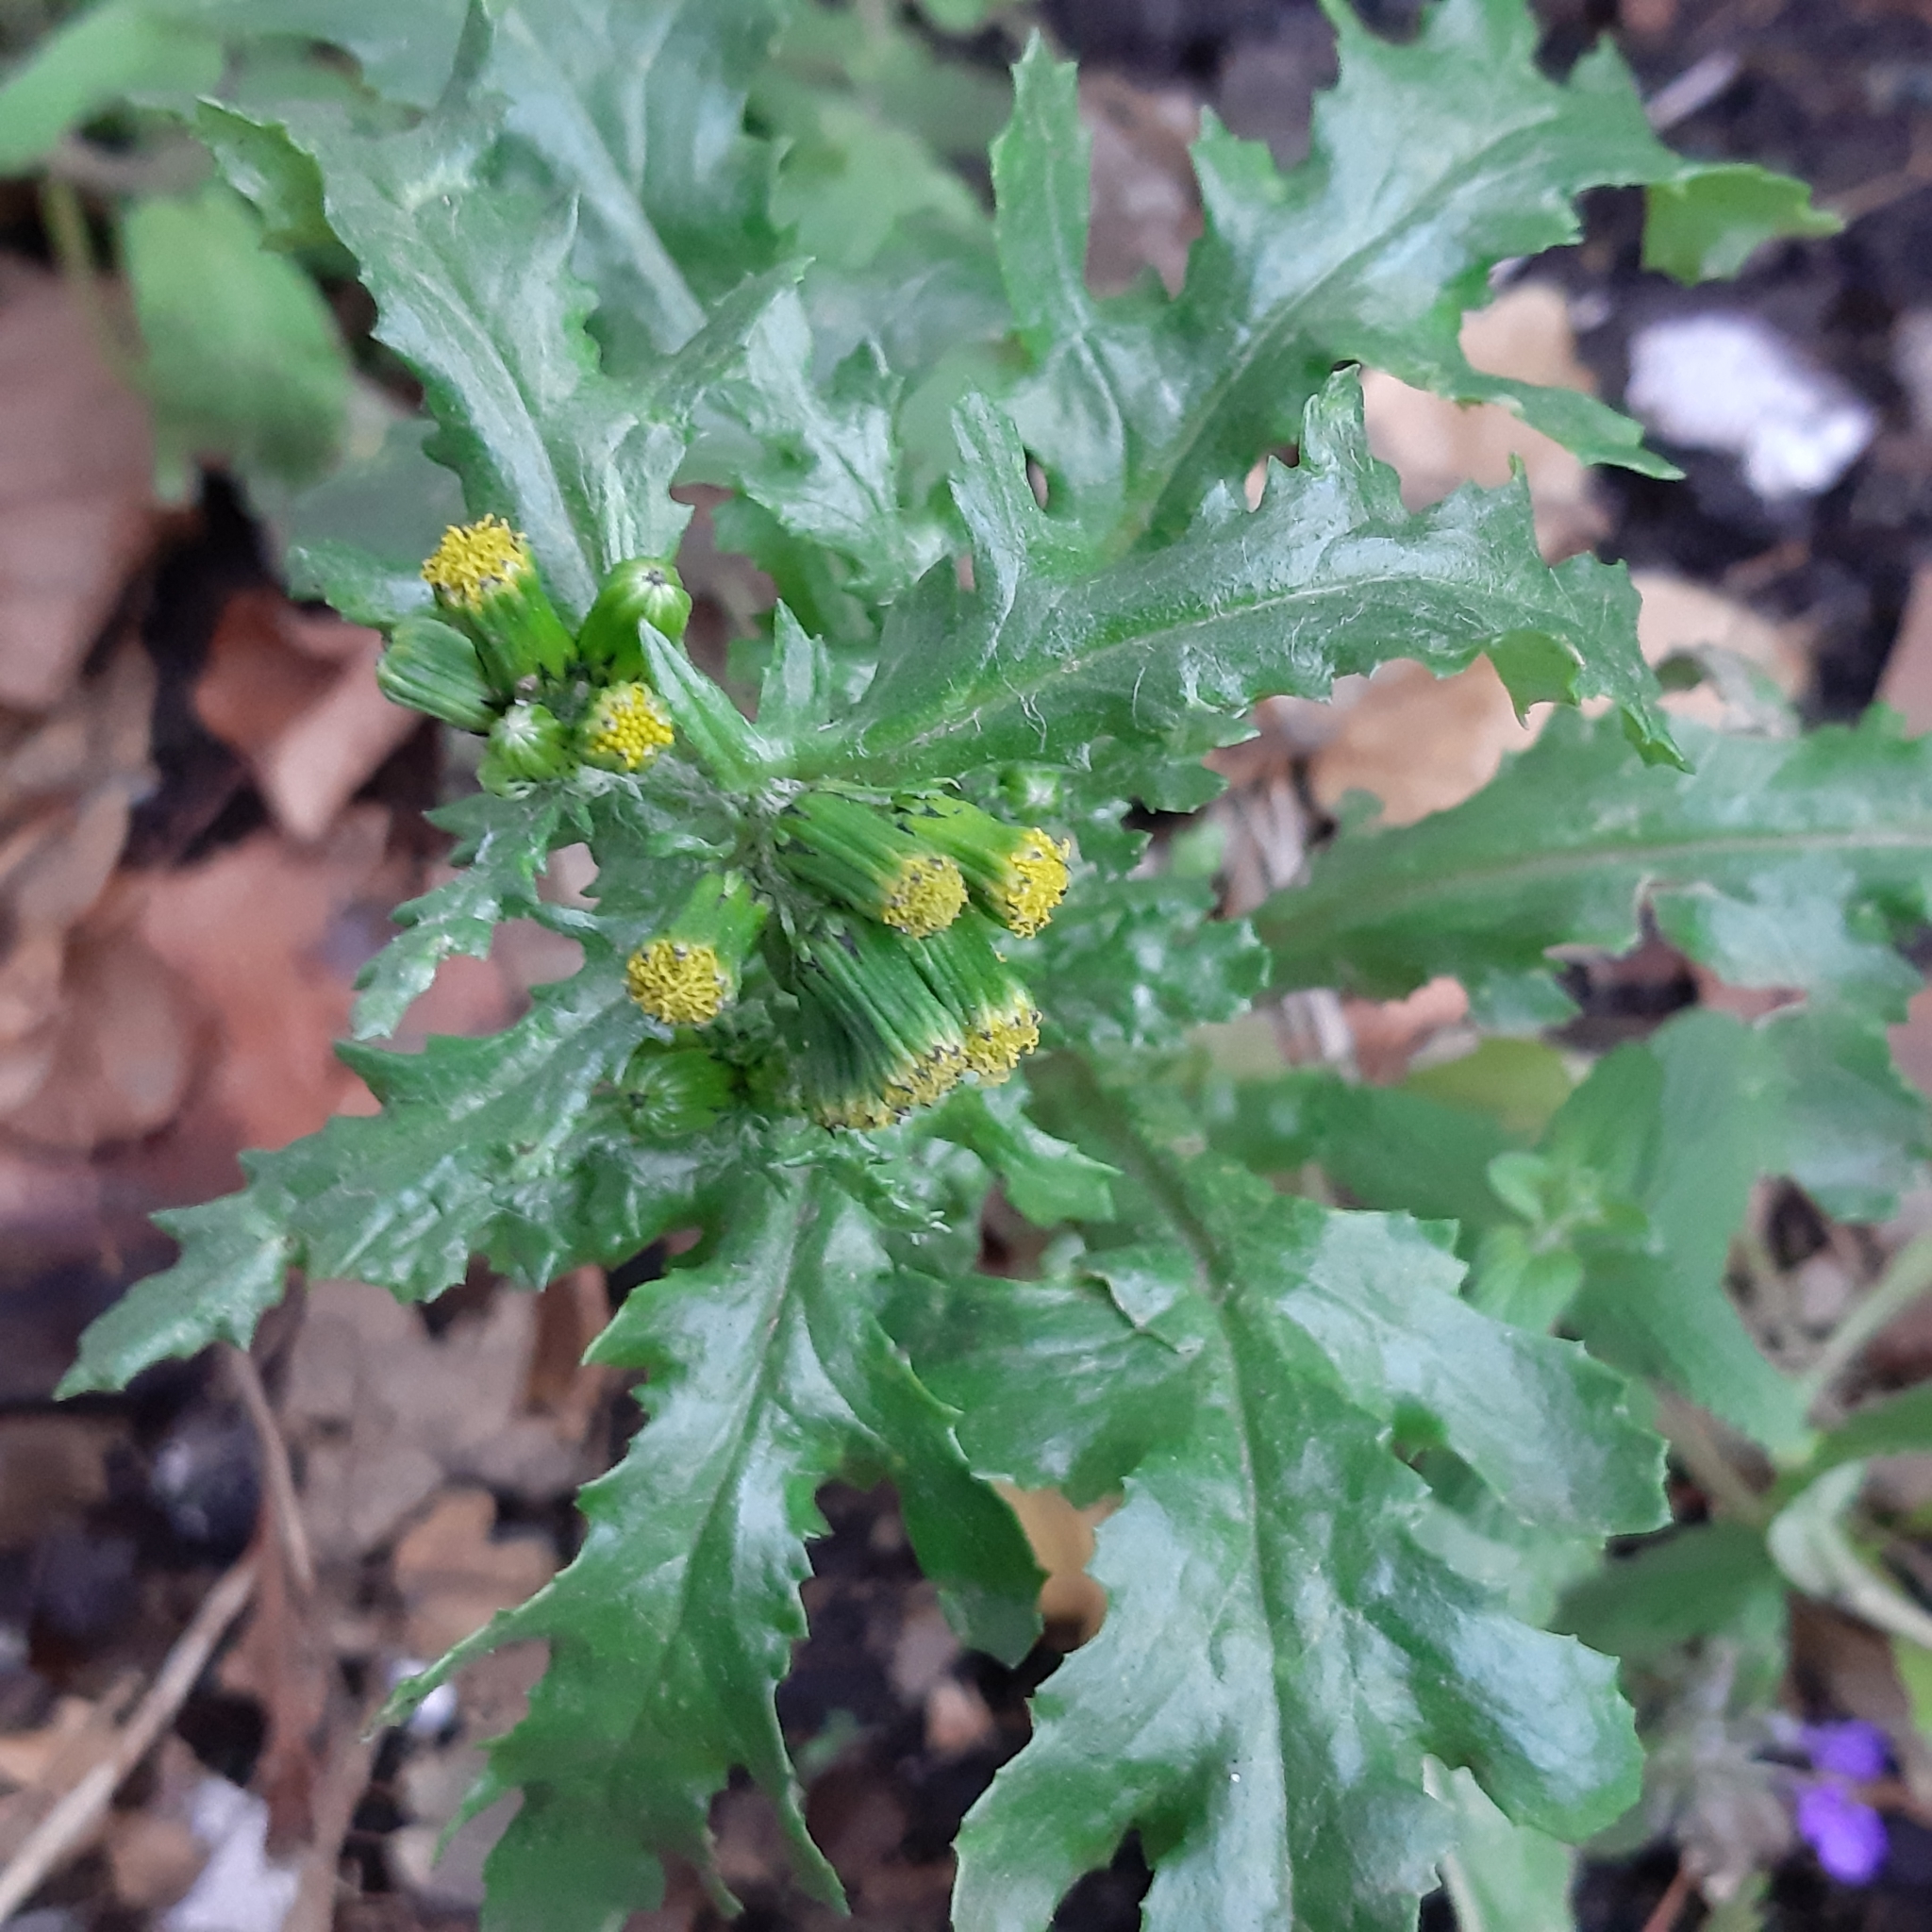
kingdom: Plantae
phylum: Tracheophyta
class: Magnoliopsida
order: Asterales
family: Asteraceae
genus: Senecio
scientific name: Senecio vulgaris
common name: Old-man-in-the-spring
